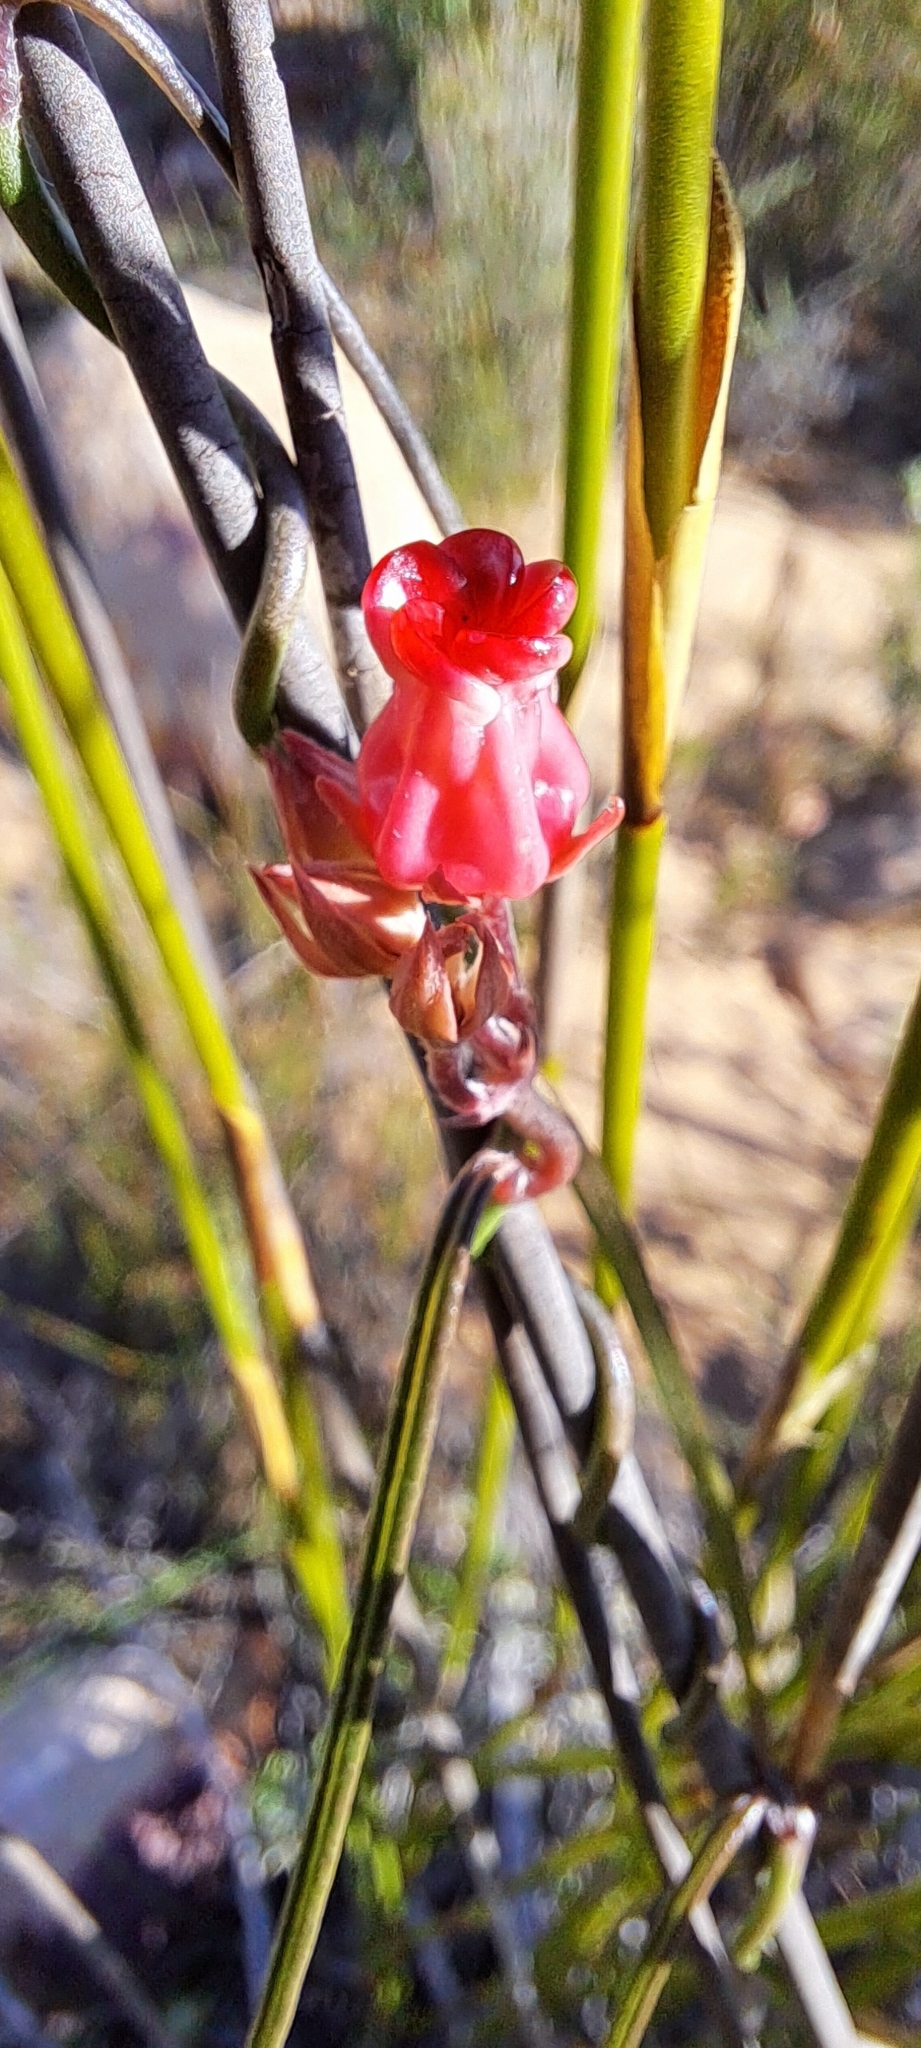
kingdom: Plantae
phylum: Tracheophyta
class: Magnoliopsida
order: Gentianales
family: Apocynaceae
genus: Microloma
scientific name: Microloma tenuifolium
